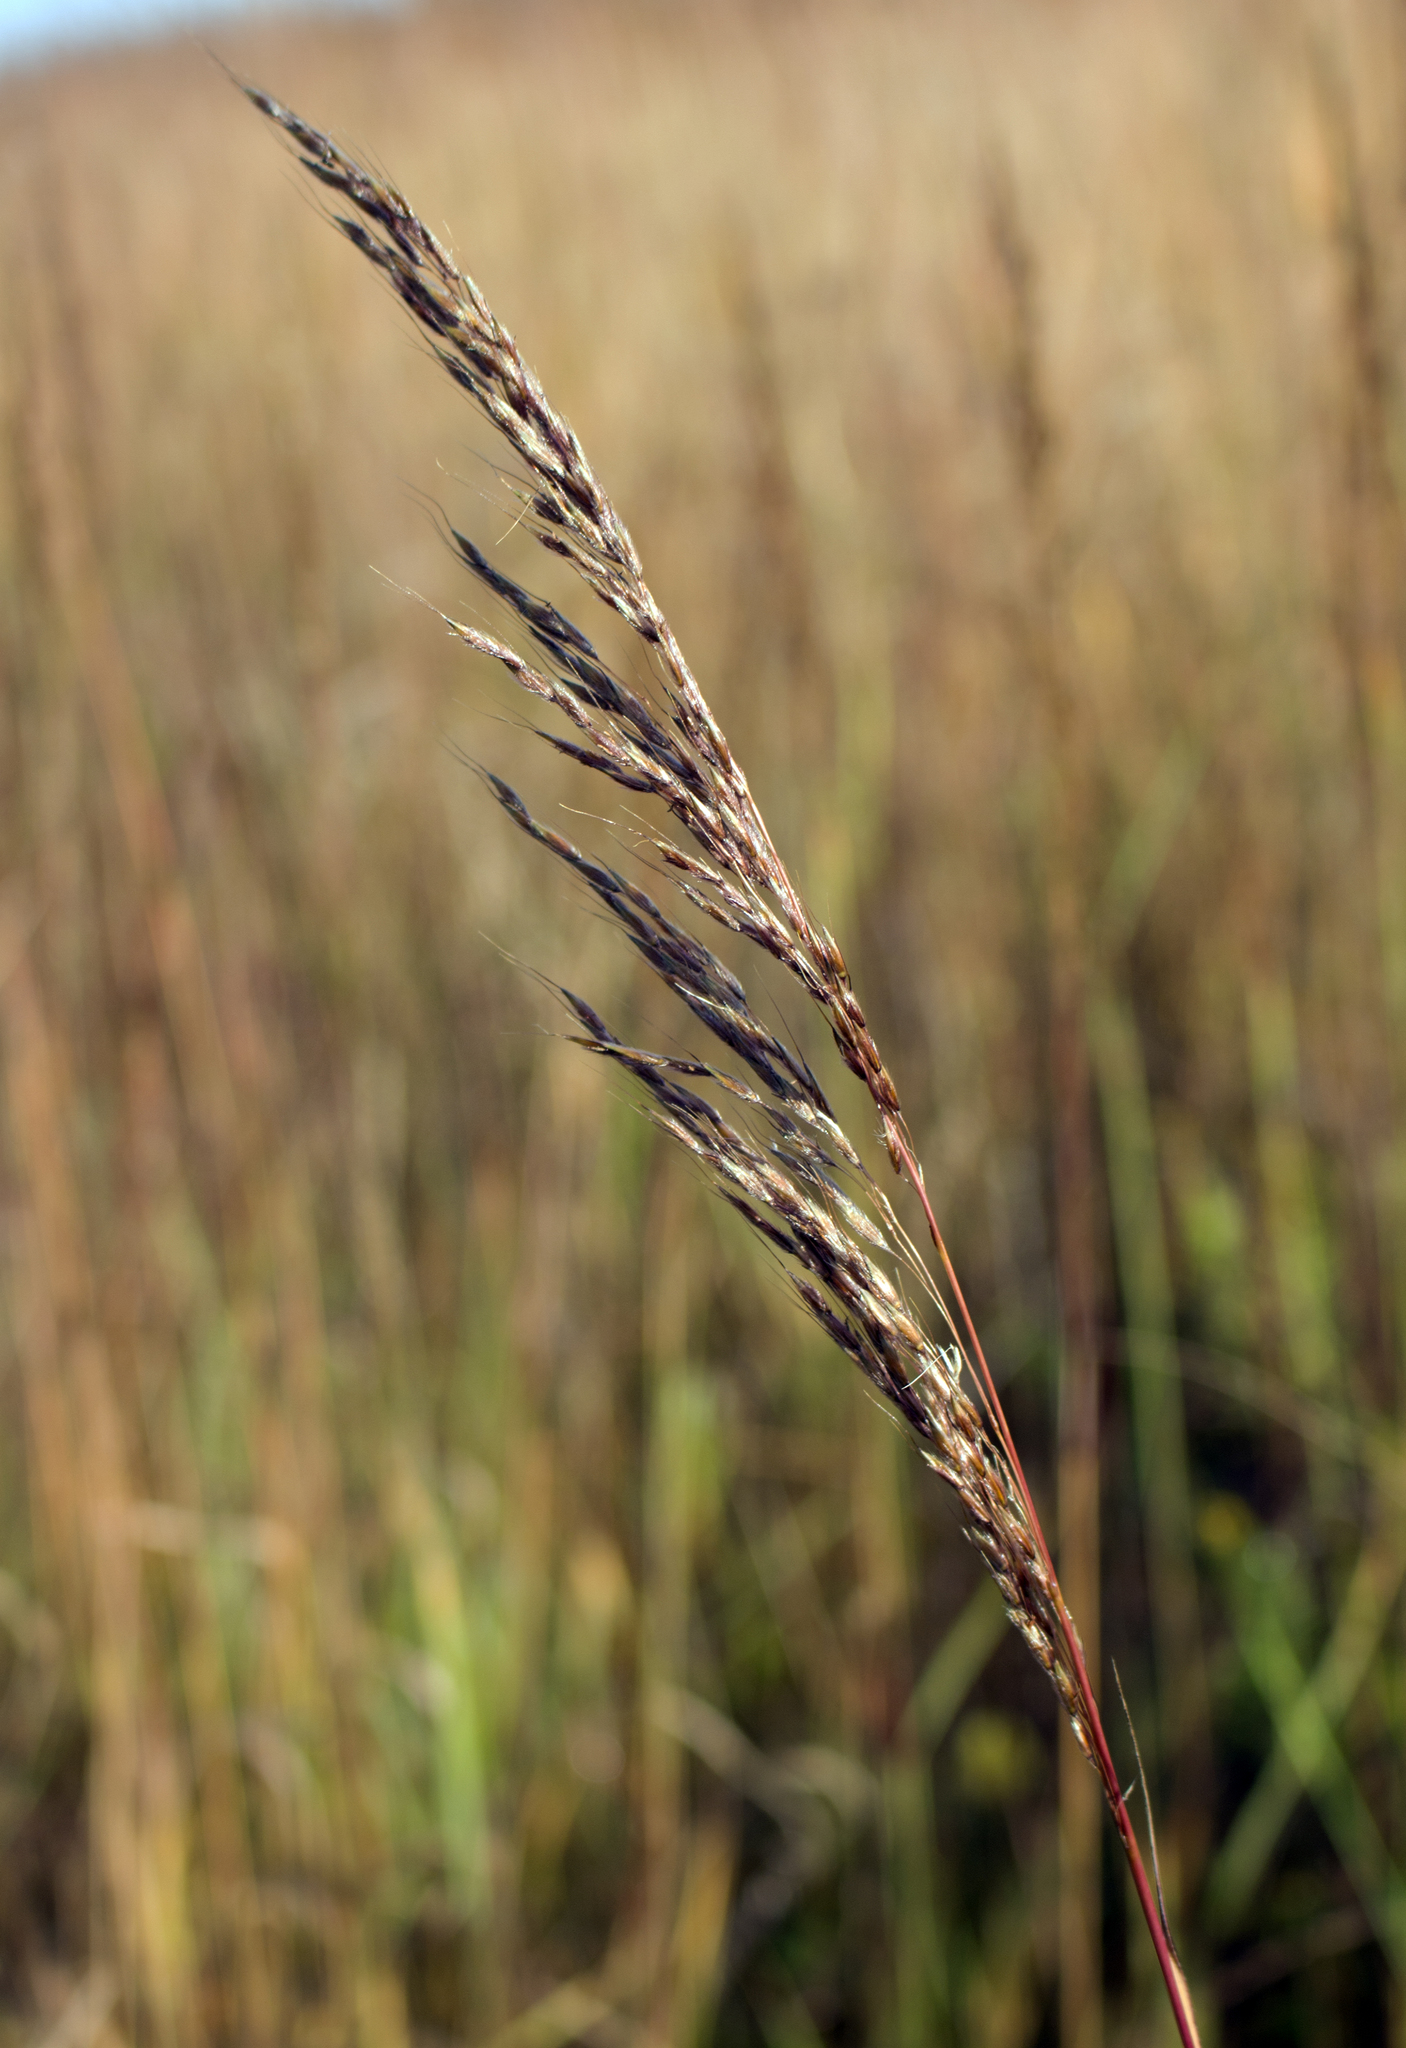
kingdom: Plantae
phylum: Tracheophyta
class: Liliopsida
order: Poales
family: Poaceae
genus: Sorghastrum
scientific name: Sorghastrum nutans
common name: Indian grass
